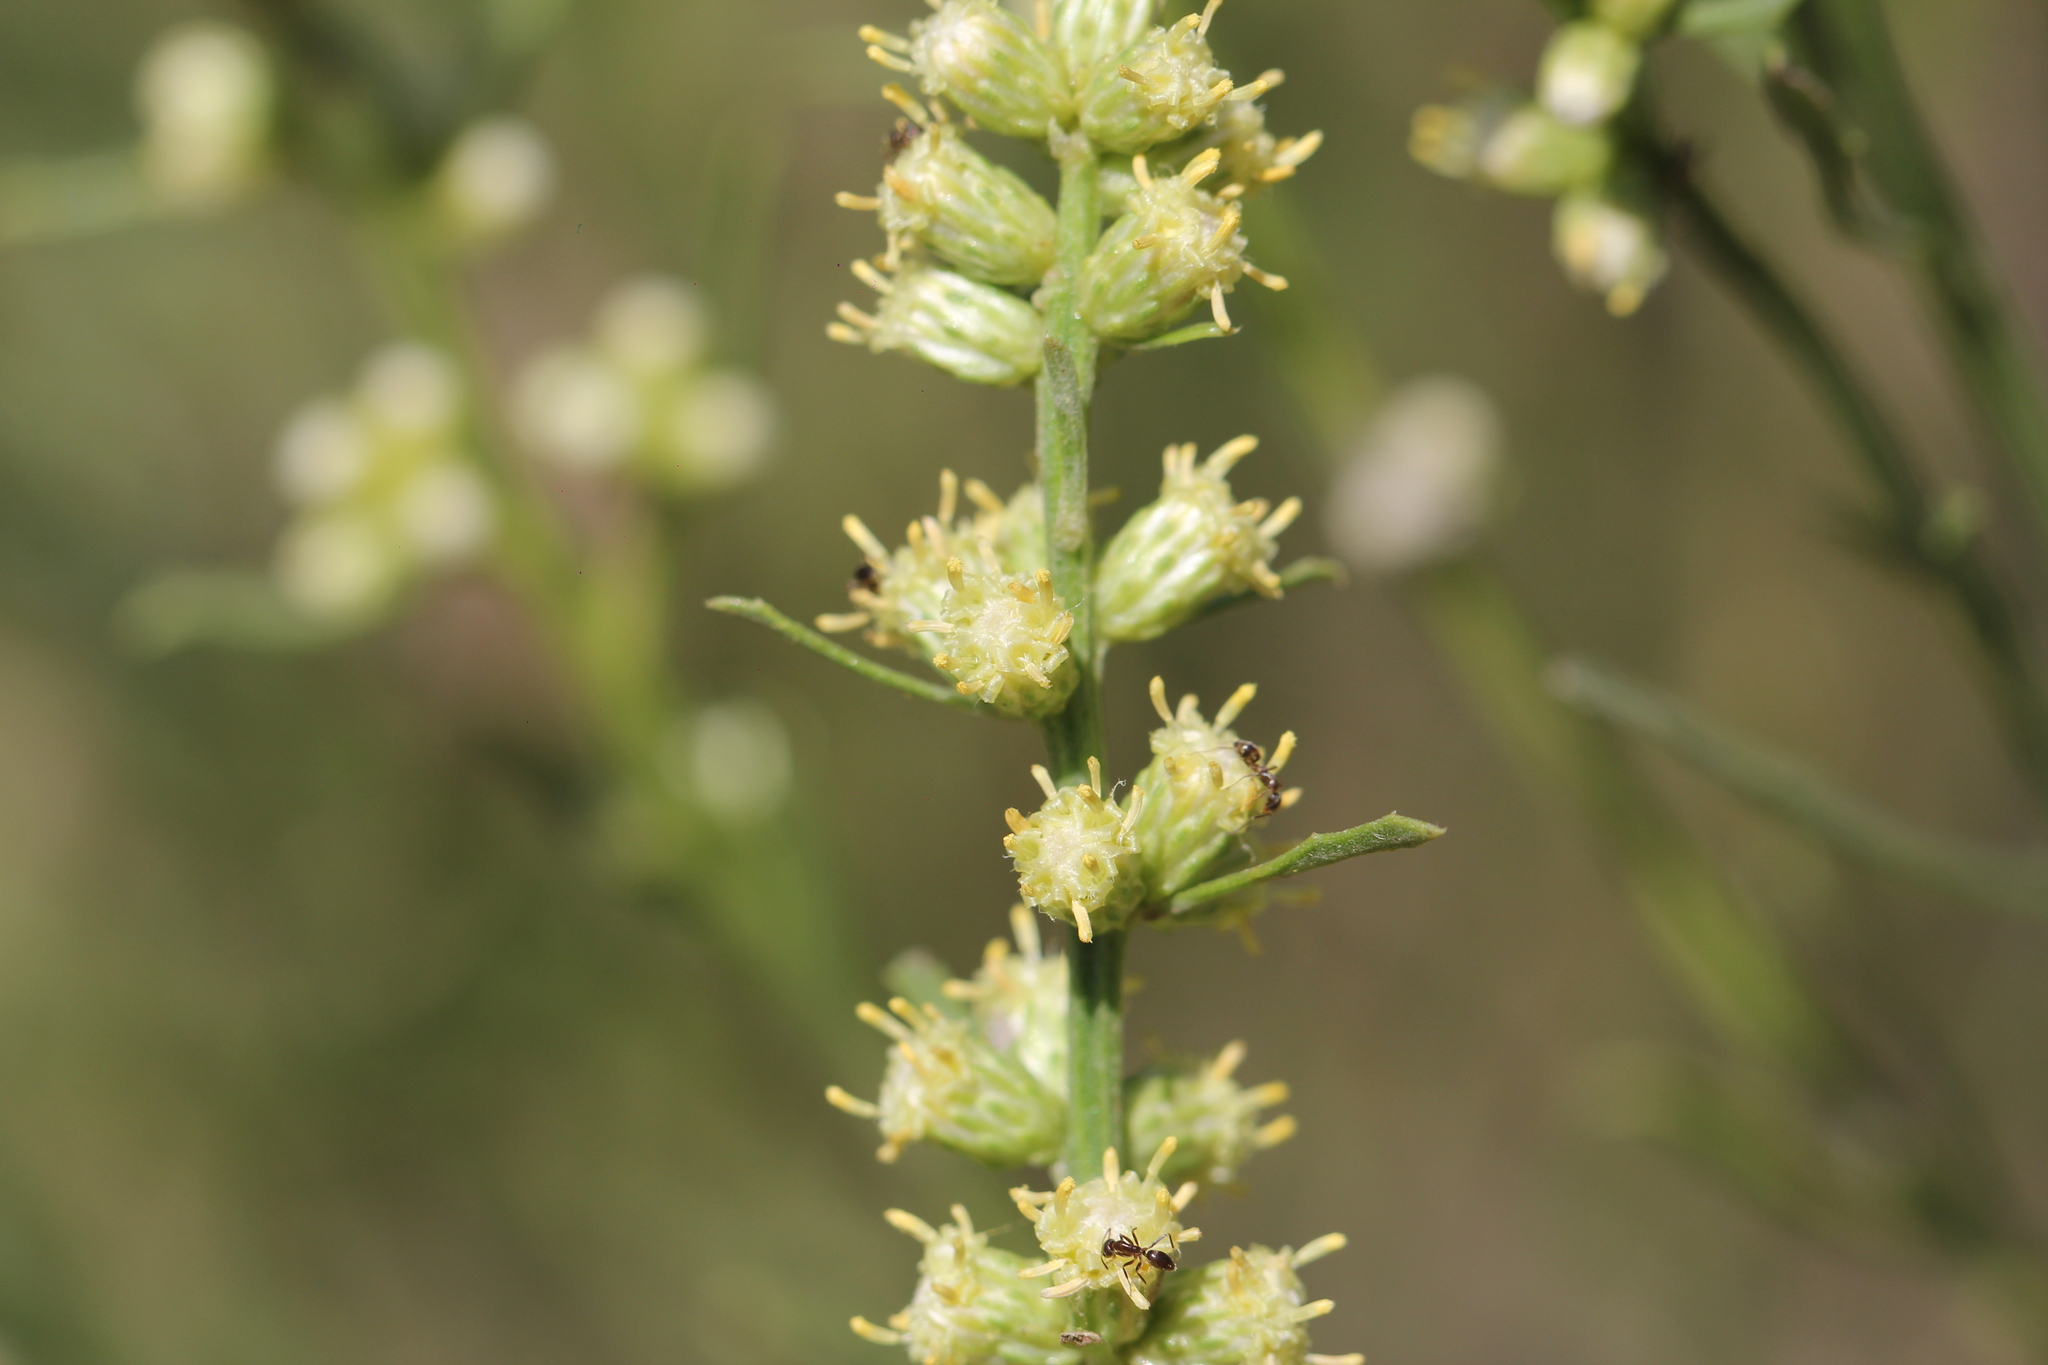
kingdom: Plantae
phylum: Tracheophyta
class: Magnoliopsida
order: Asterales
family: Asteraceae
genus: Baccharis
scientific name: Baccharis spicata
